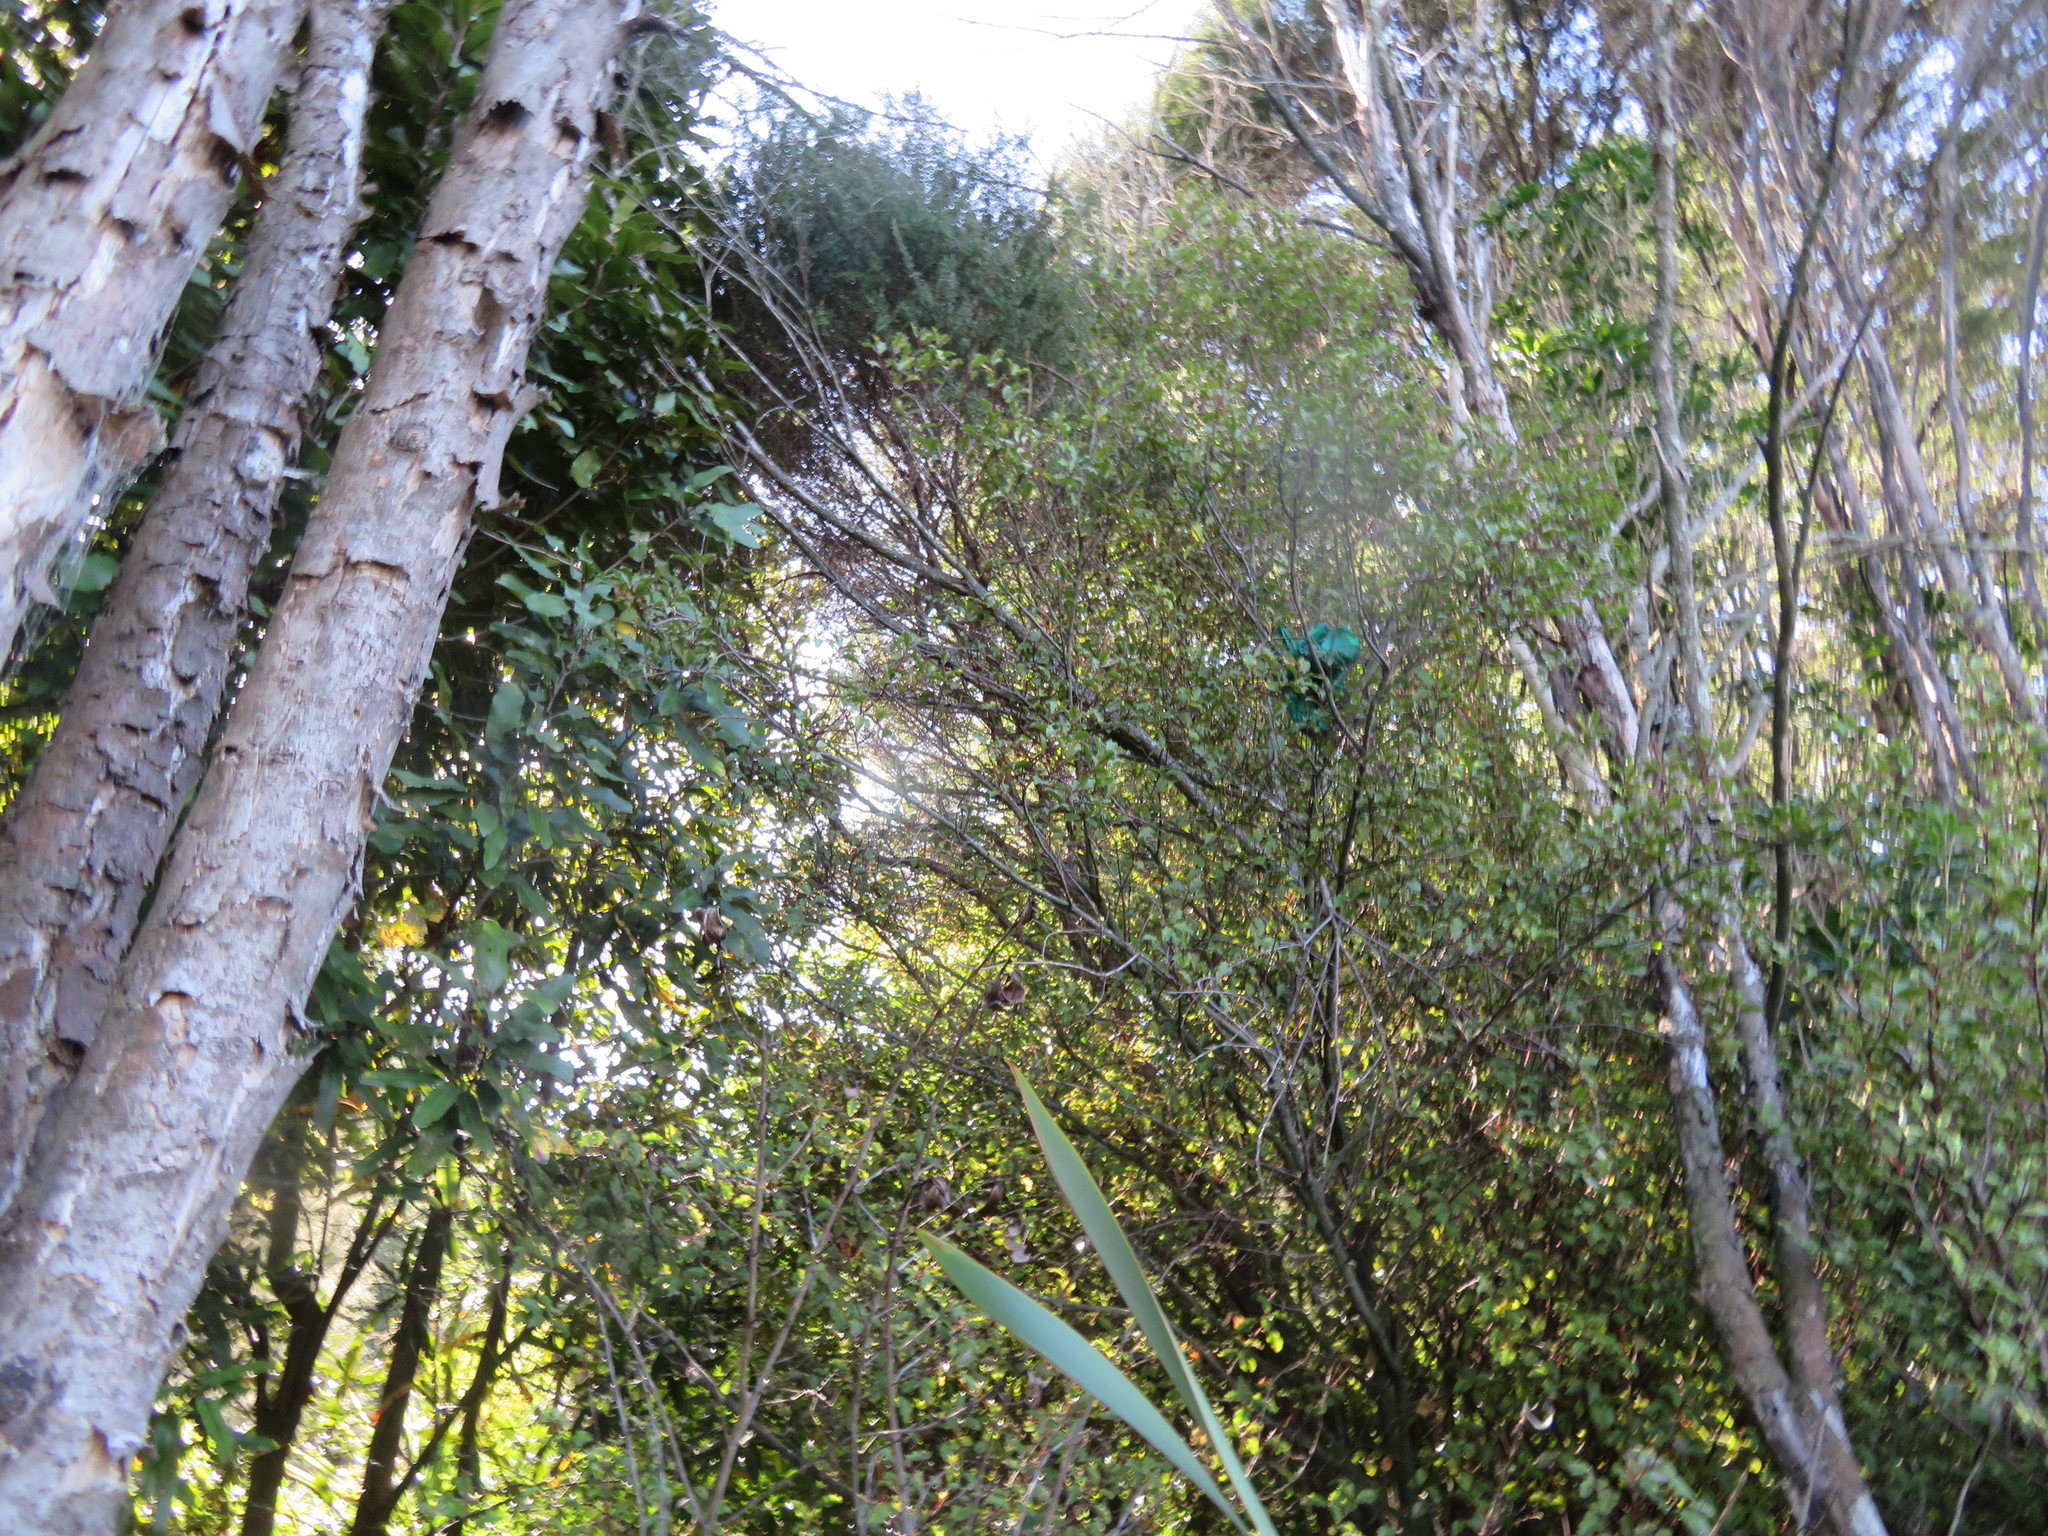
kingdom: Plantae
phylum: Tracheophyta
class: Magnoliopsida
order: Ericales
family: Primulaceae
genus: Myrsine
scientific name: Myrsine australis
